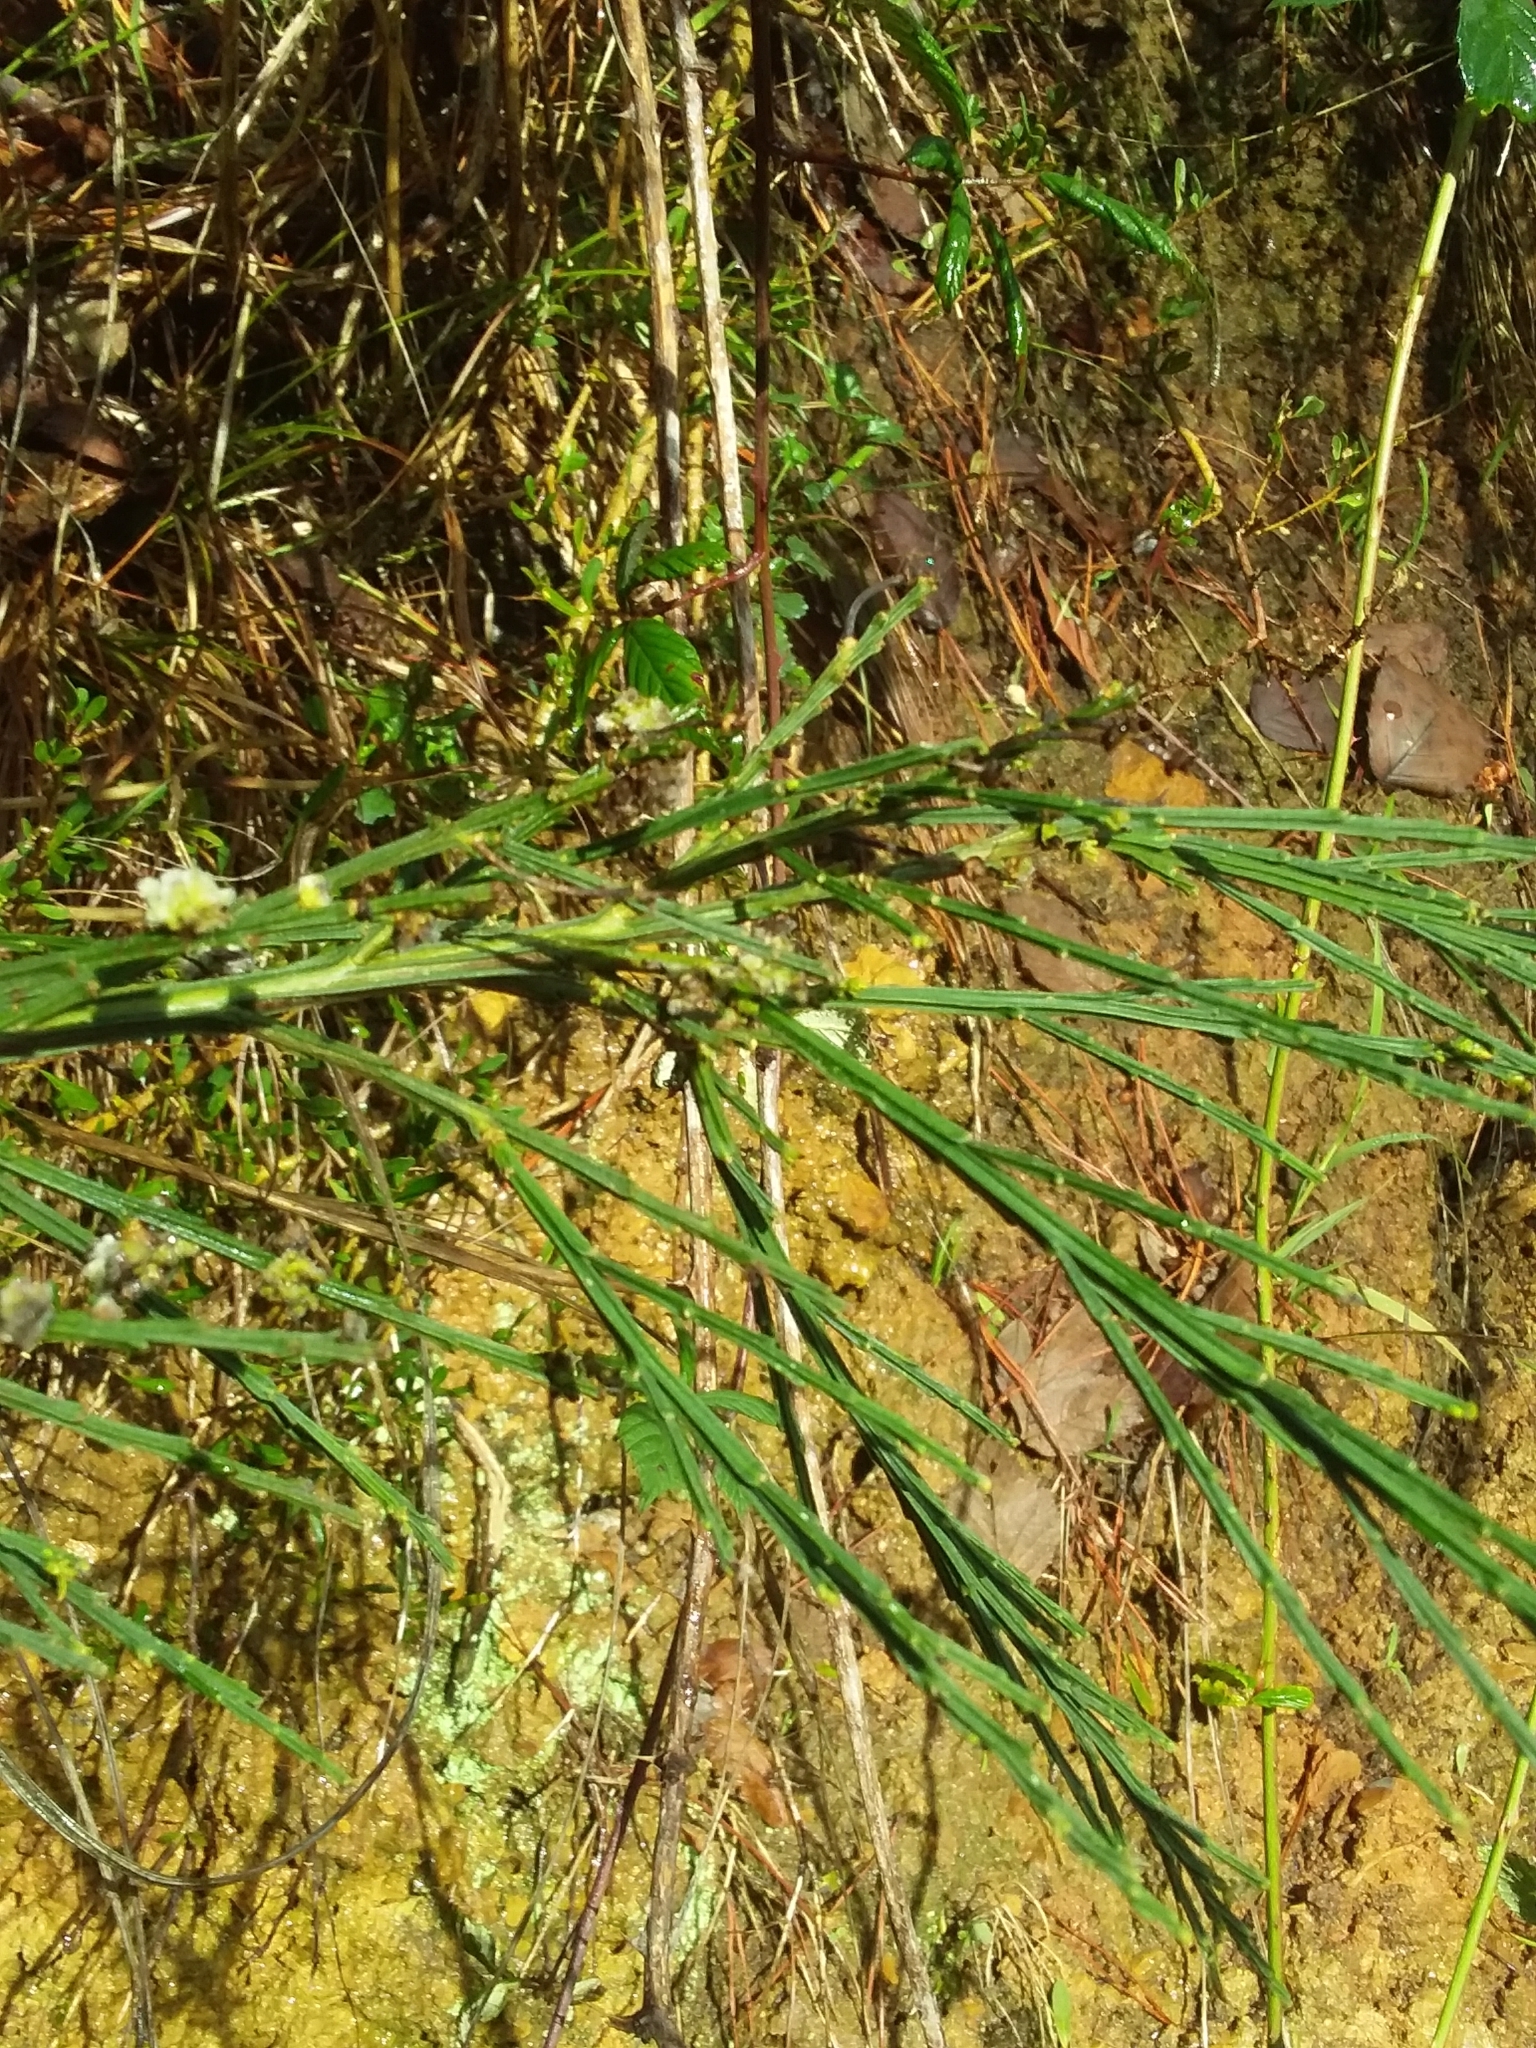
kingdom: Plantae
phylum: Tracheophyta
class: Magnoliopsida
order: Fabales
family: Fabaceae
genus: Cytisus
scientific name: Cytisus scoparius
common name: Scotch broom
